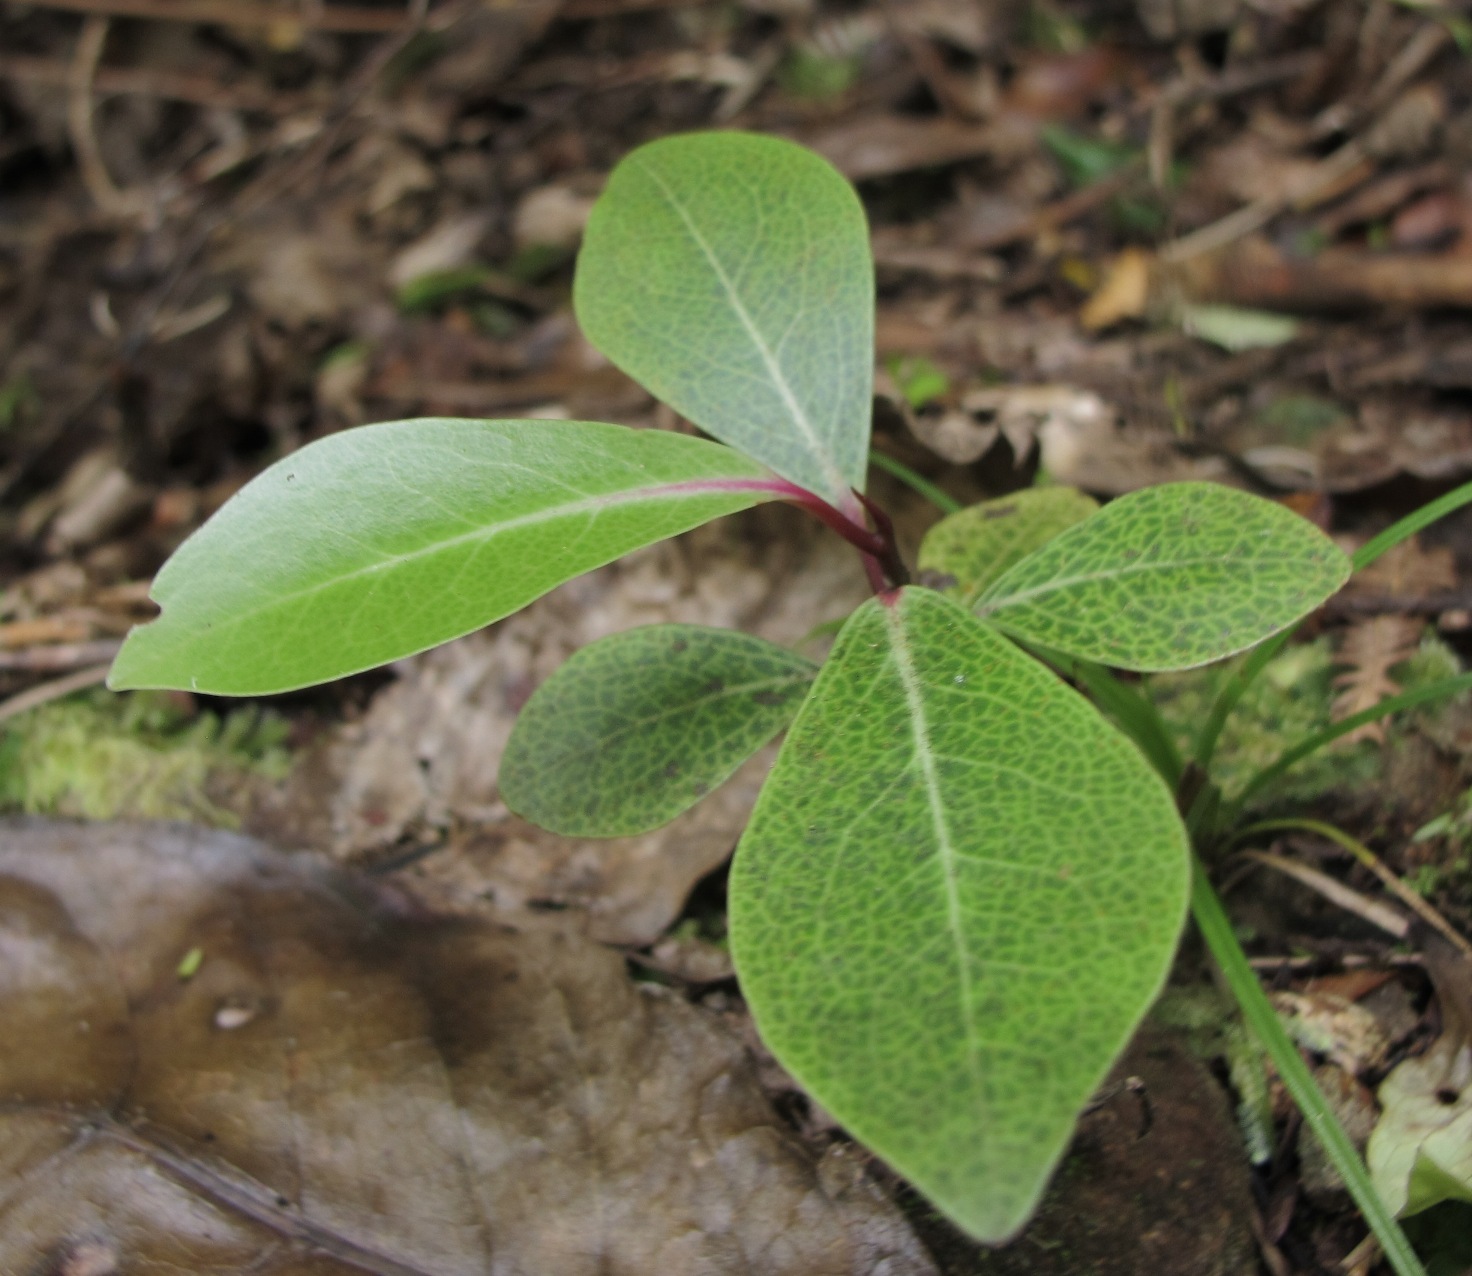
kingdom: Plantae
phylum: Tracheophyta
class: Magnoliopsida
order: Canellales
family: Winteraceae
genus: Pseudowintera
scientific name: Pseudowintera axillaris
